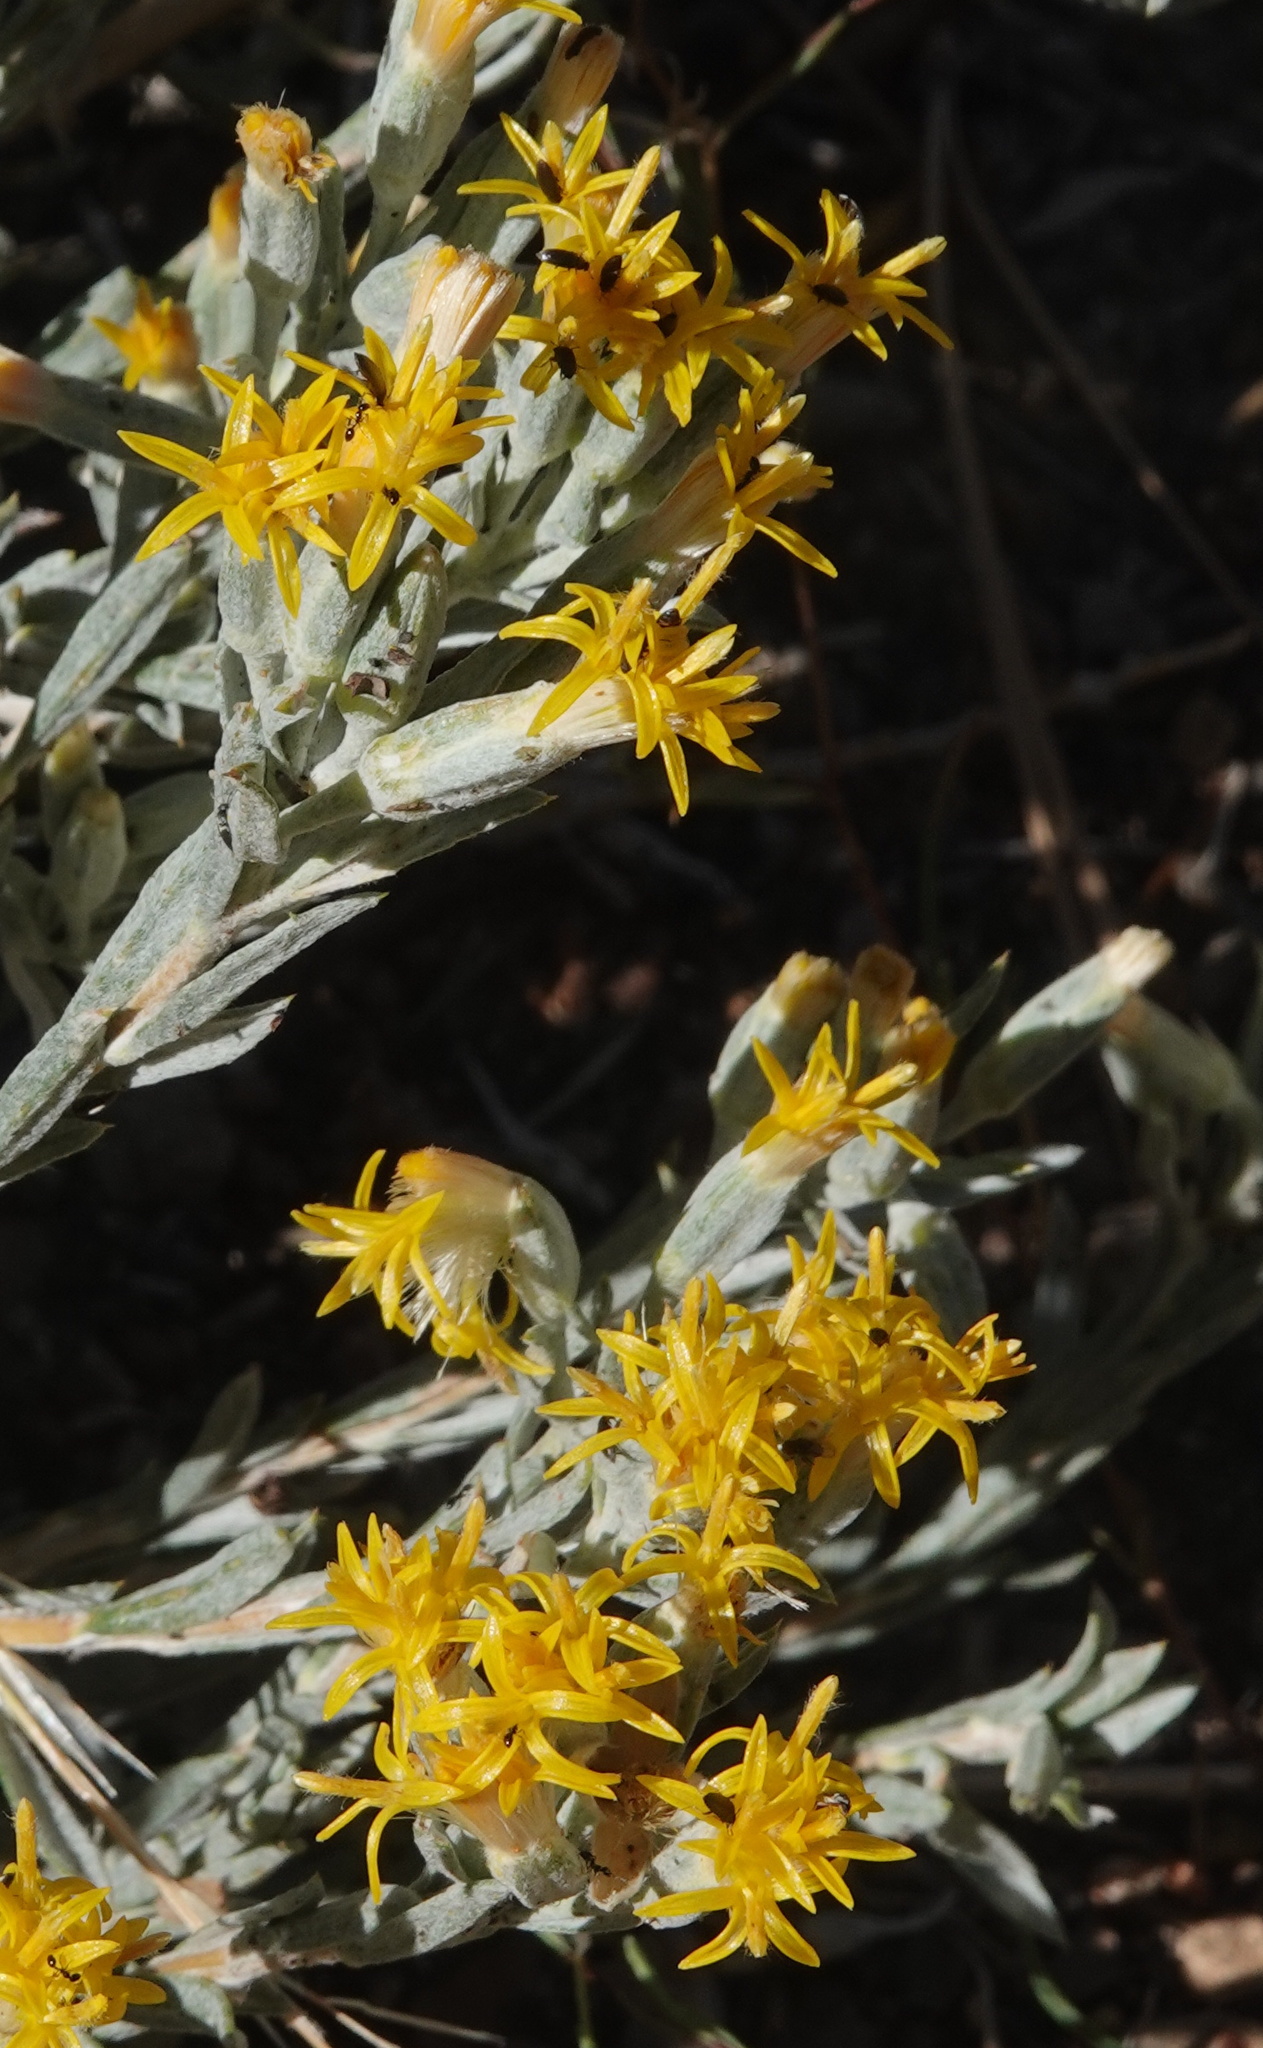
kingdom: Plantae
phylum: Tracheophyta
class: Magnoliopsida
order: Asterales
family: Asteraceae
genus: Tetradymia
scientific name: Tetradymia canescens
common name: Spineless horsebrush
